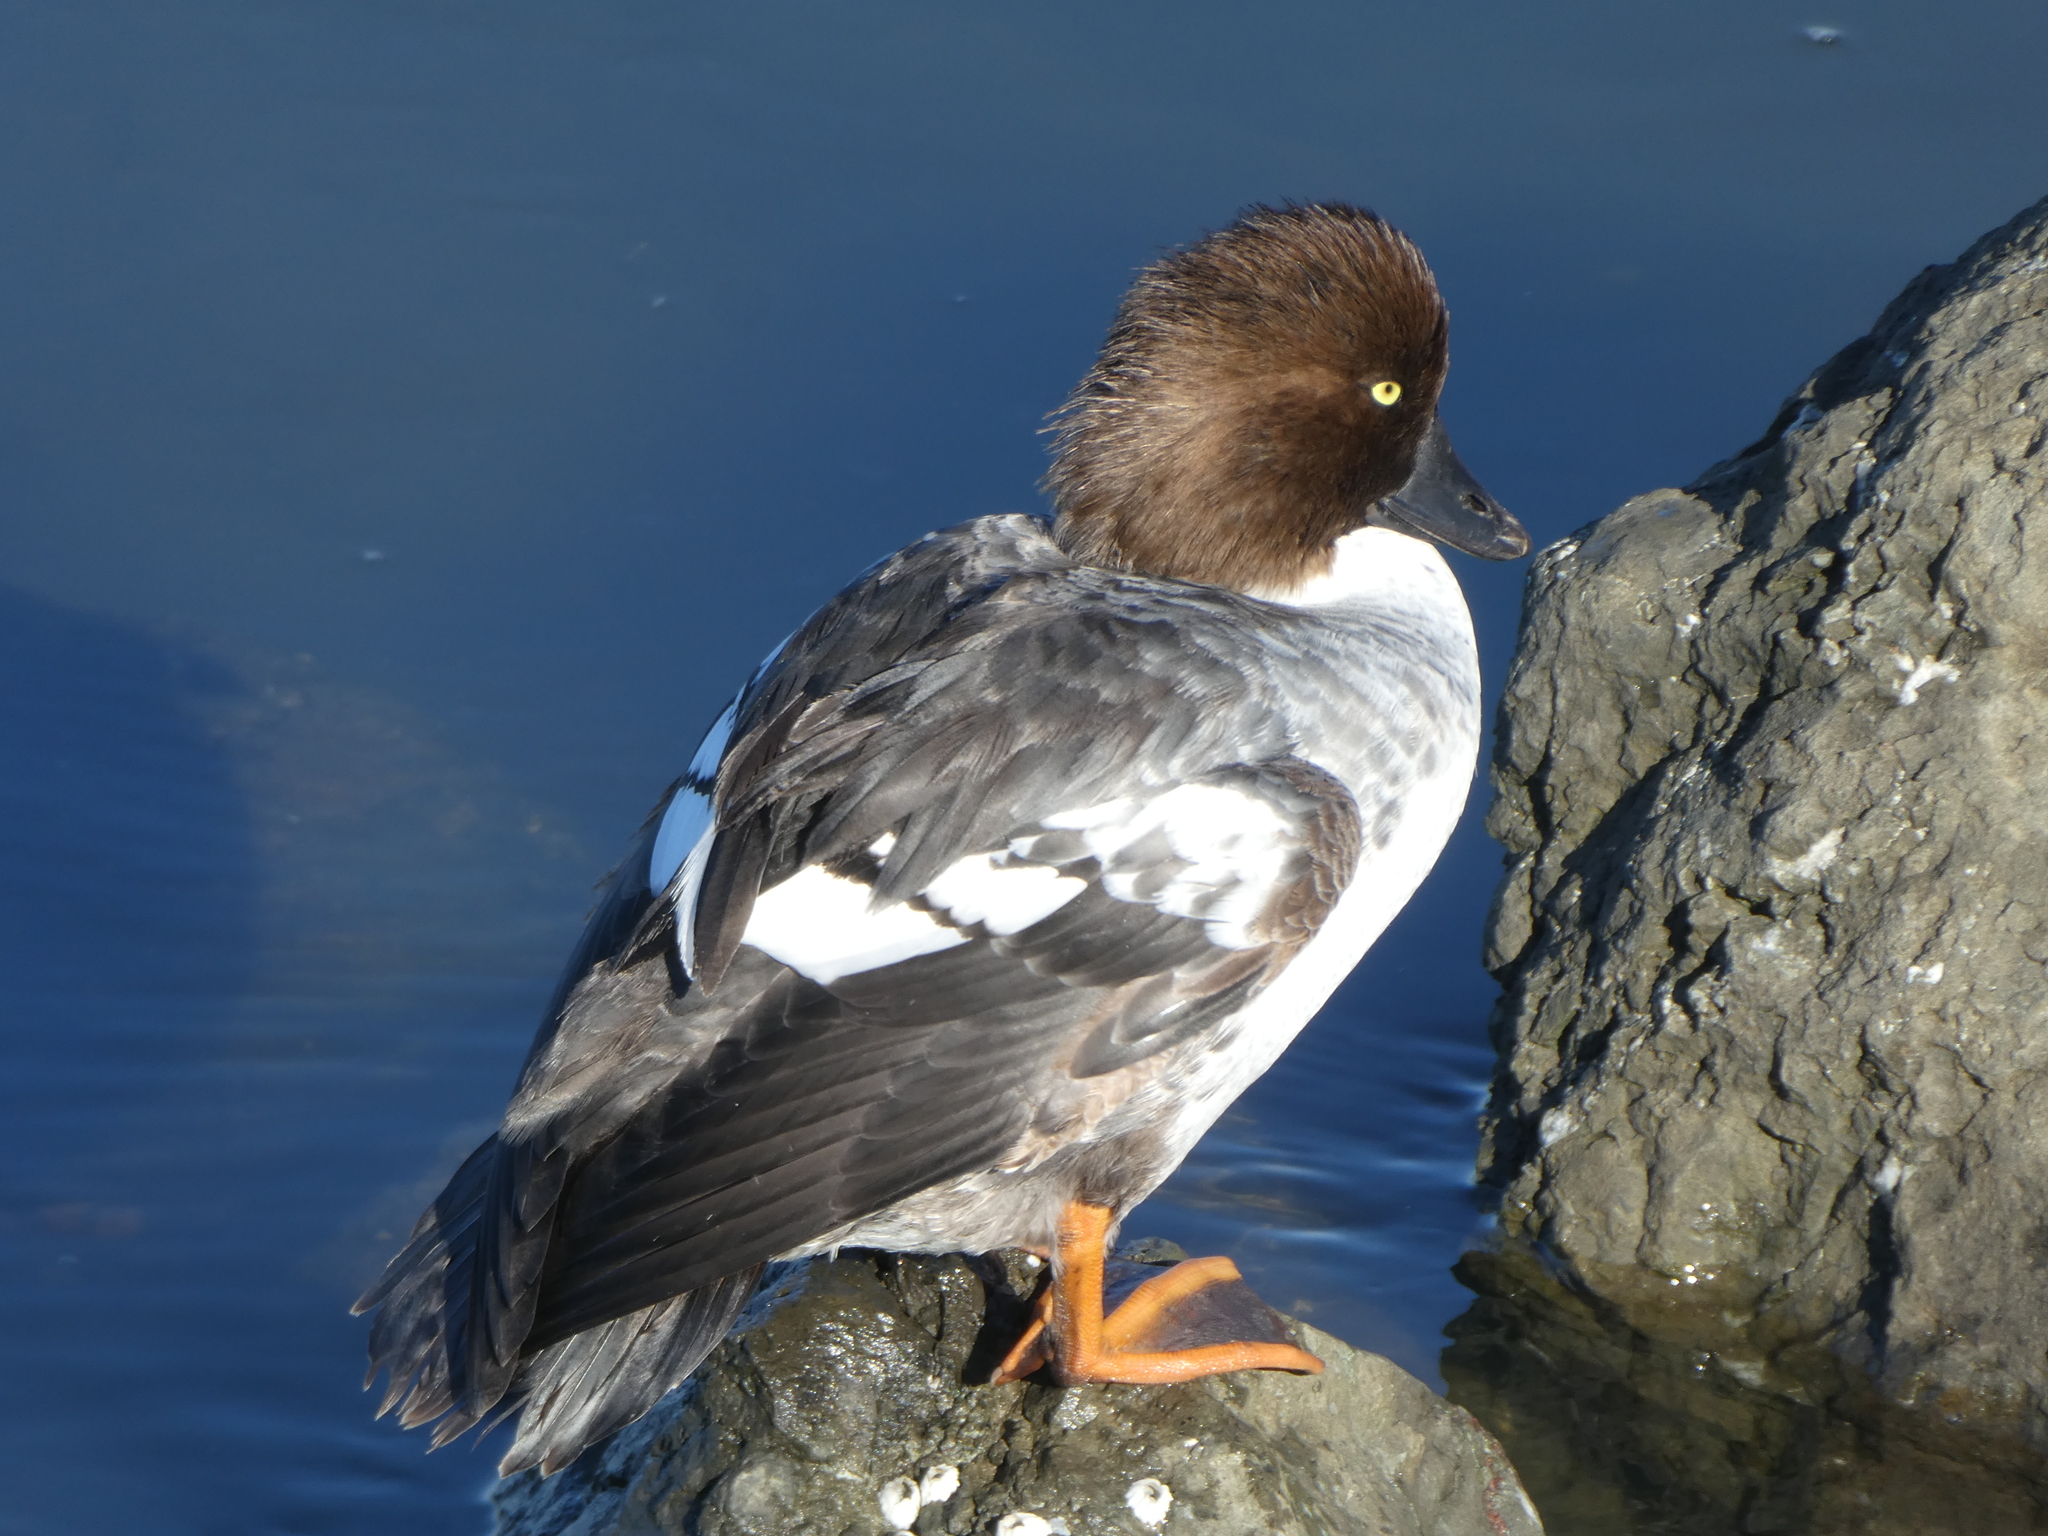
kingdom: Animalia
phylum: Chordata
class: Aves
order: Anseriformes
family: Anatidae
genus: Bucephala
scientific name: Bucephala clangula
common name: Common goldeneye
